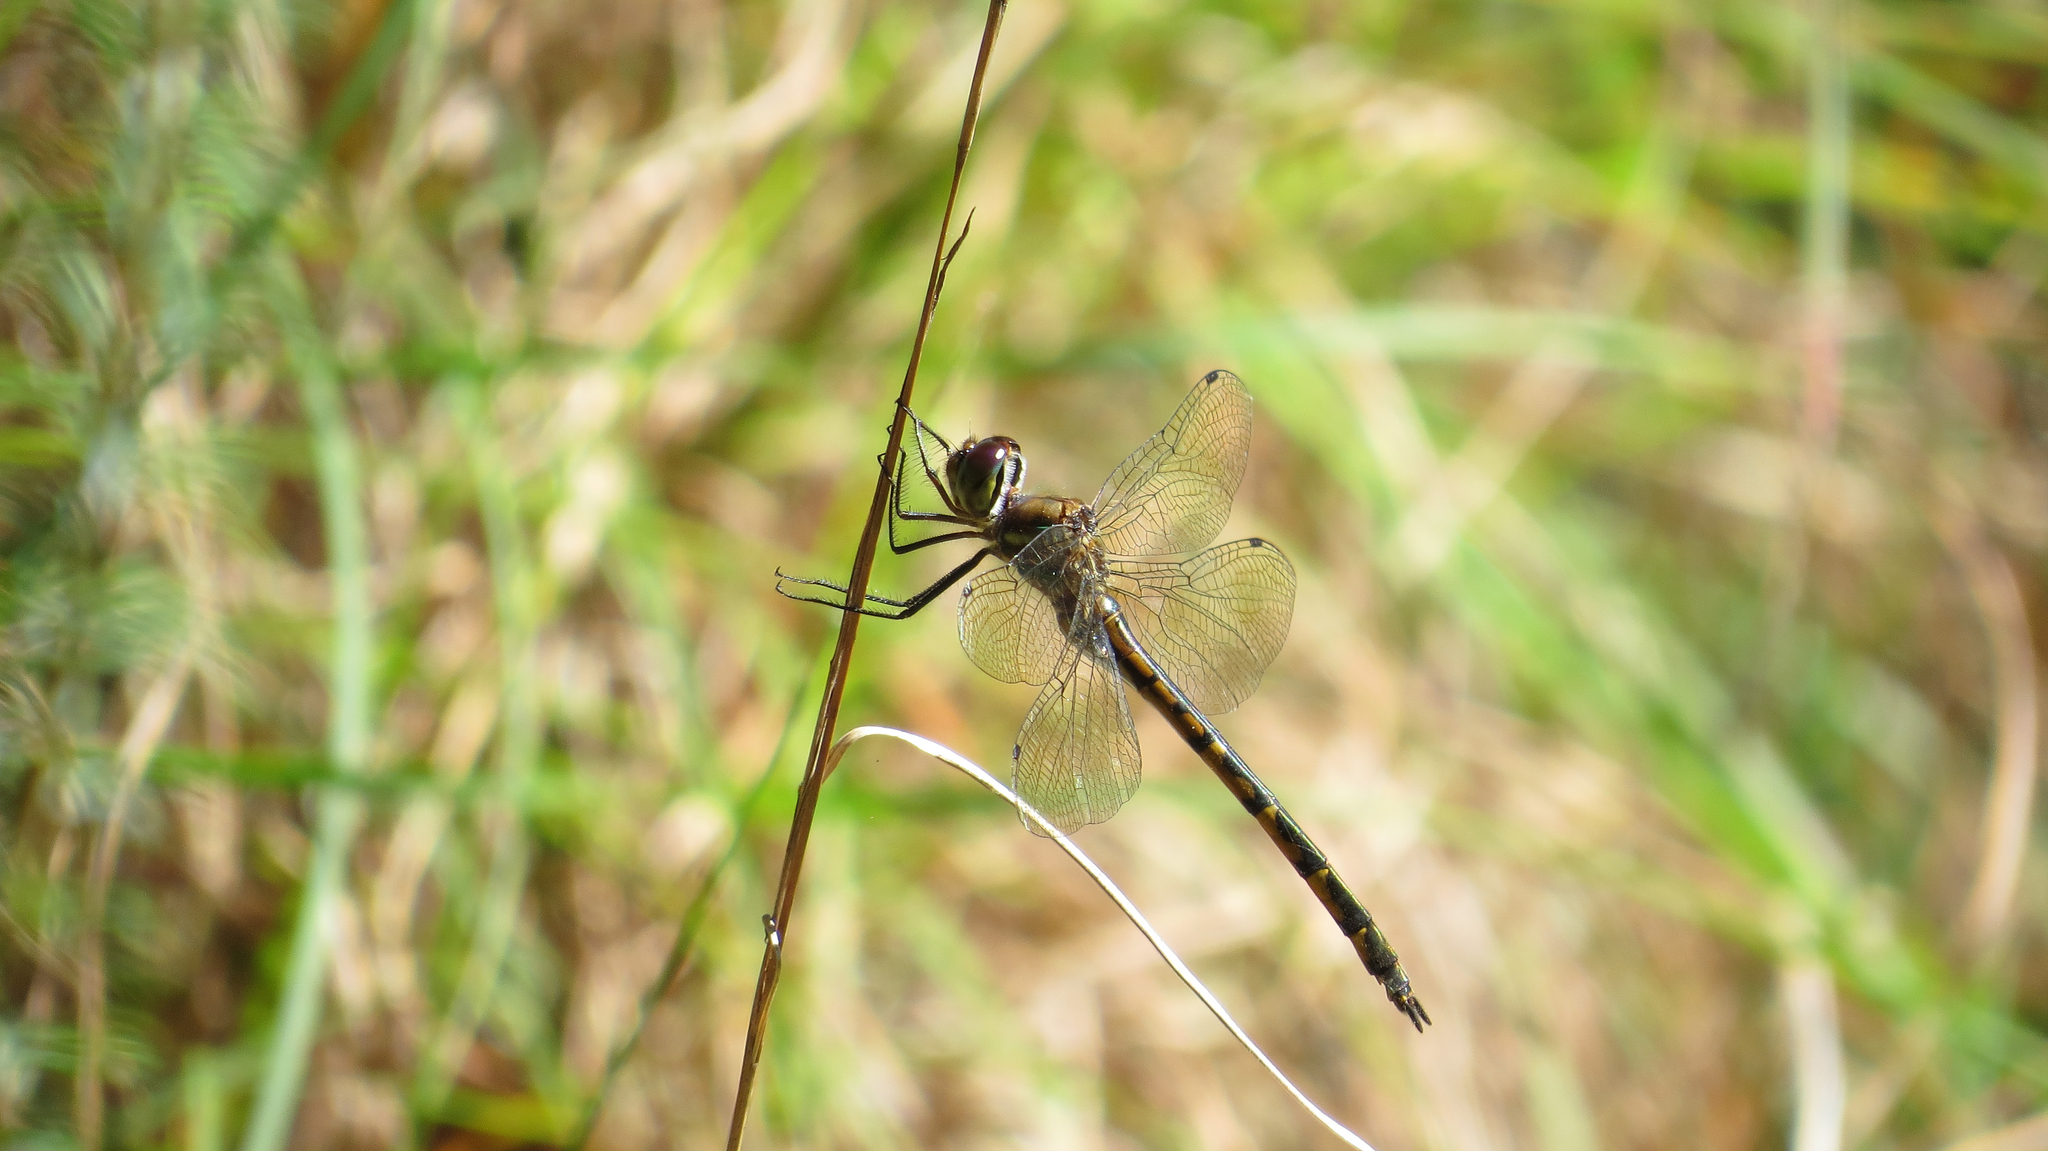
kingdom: Animalia
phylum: Arthropoda
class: Insecta
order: Odonata
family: Corduliidae
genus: Hemicordulia
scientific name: Hemicordulia australiae
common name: Sentry dragonfly
